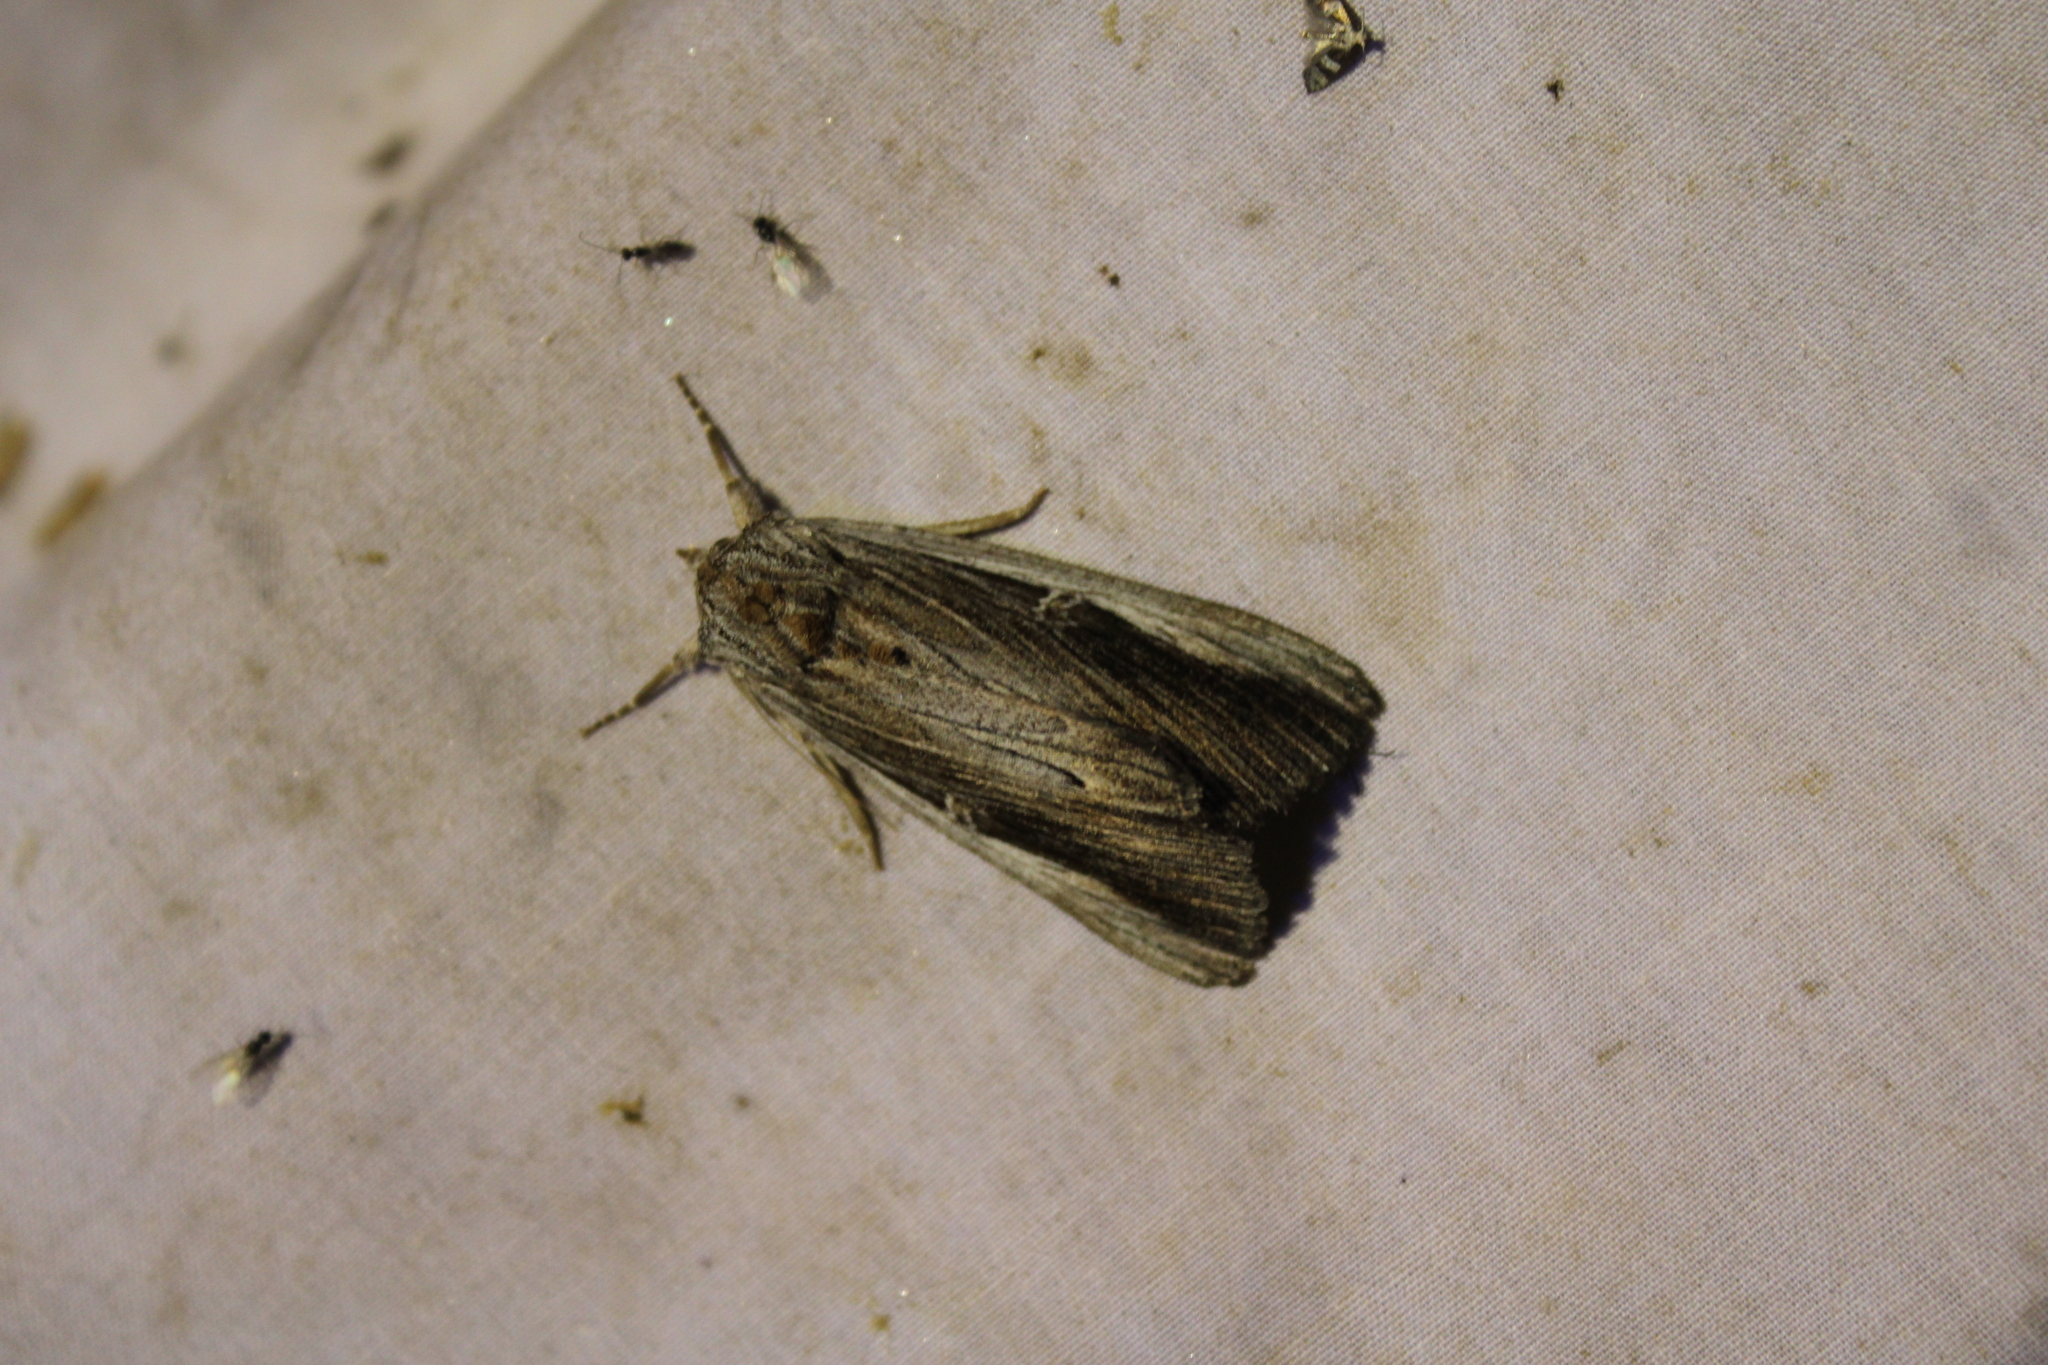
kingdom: Animalia
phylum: Arthropoda
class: Insecta
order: Lepidoptera
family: Erebidae
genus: Catocala
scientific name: Catocala herodias
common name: Pine barrens underwing
